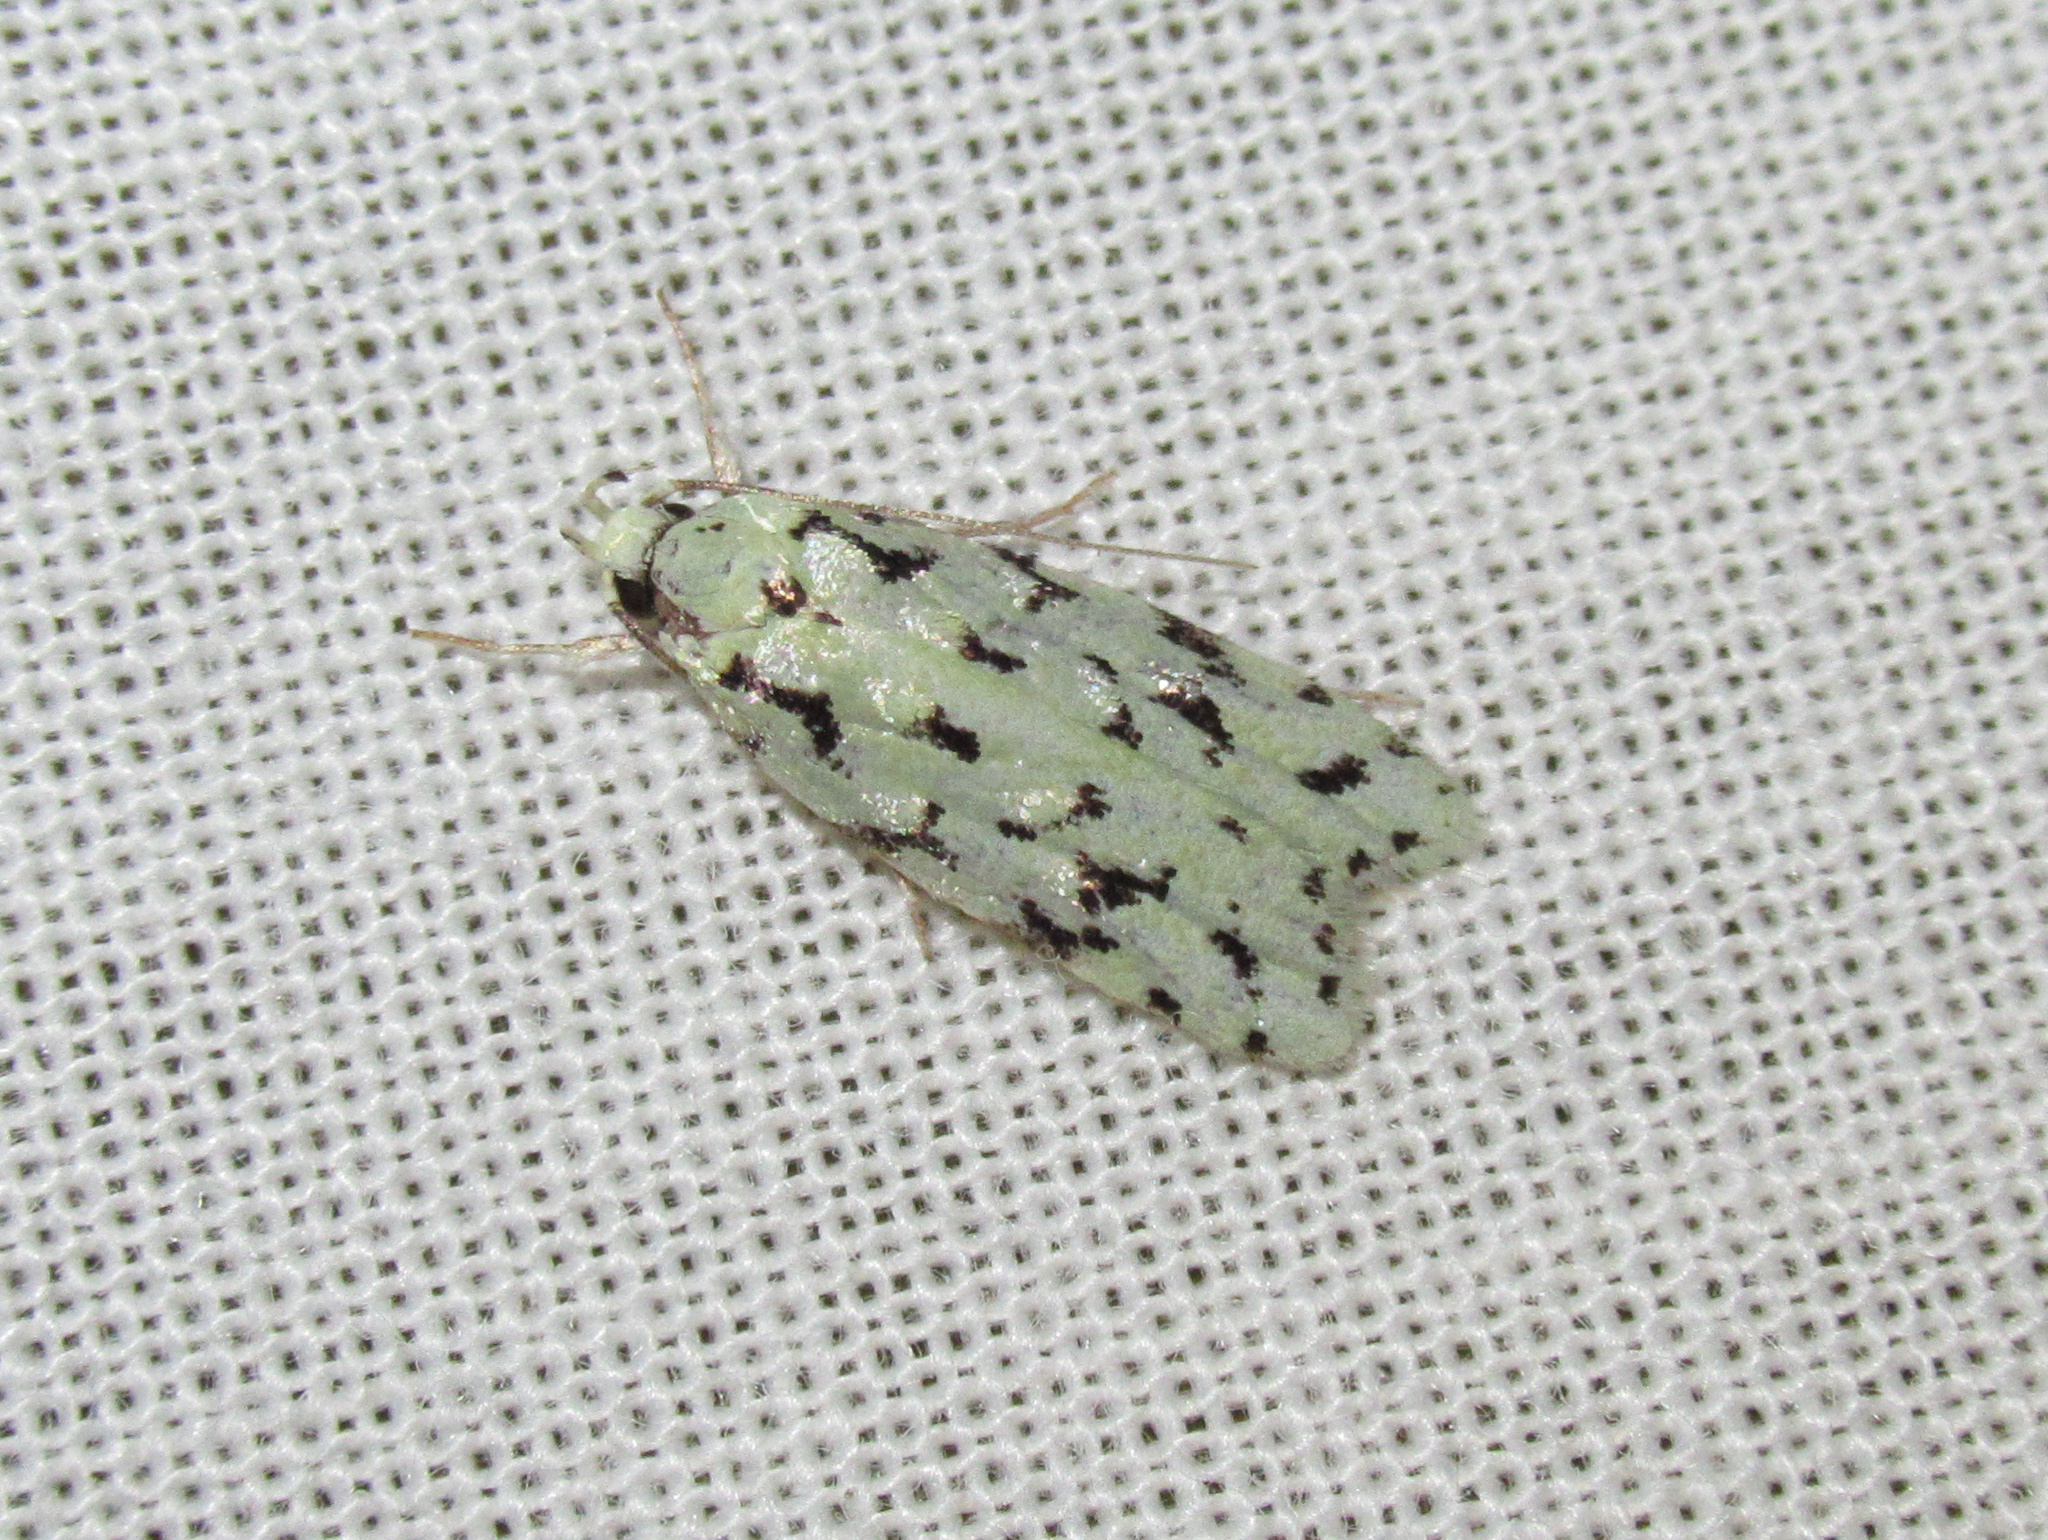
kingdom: Animalia
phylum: Arthropoda
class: Insecta
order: Lepidoptera
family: Oecophoridae
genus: Izatha
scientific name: Izatha peroneanella
